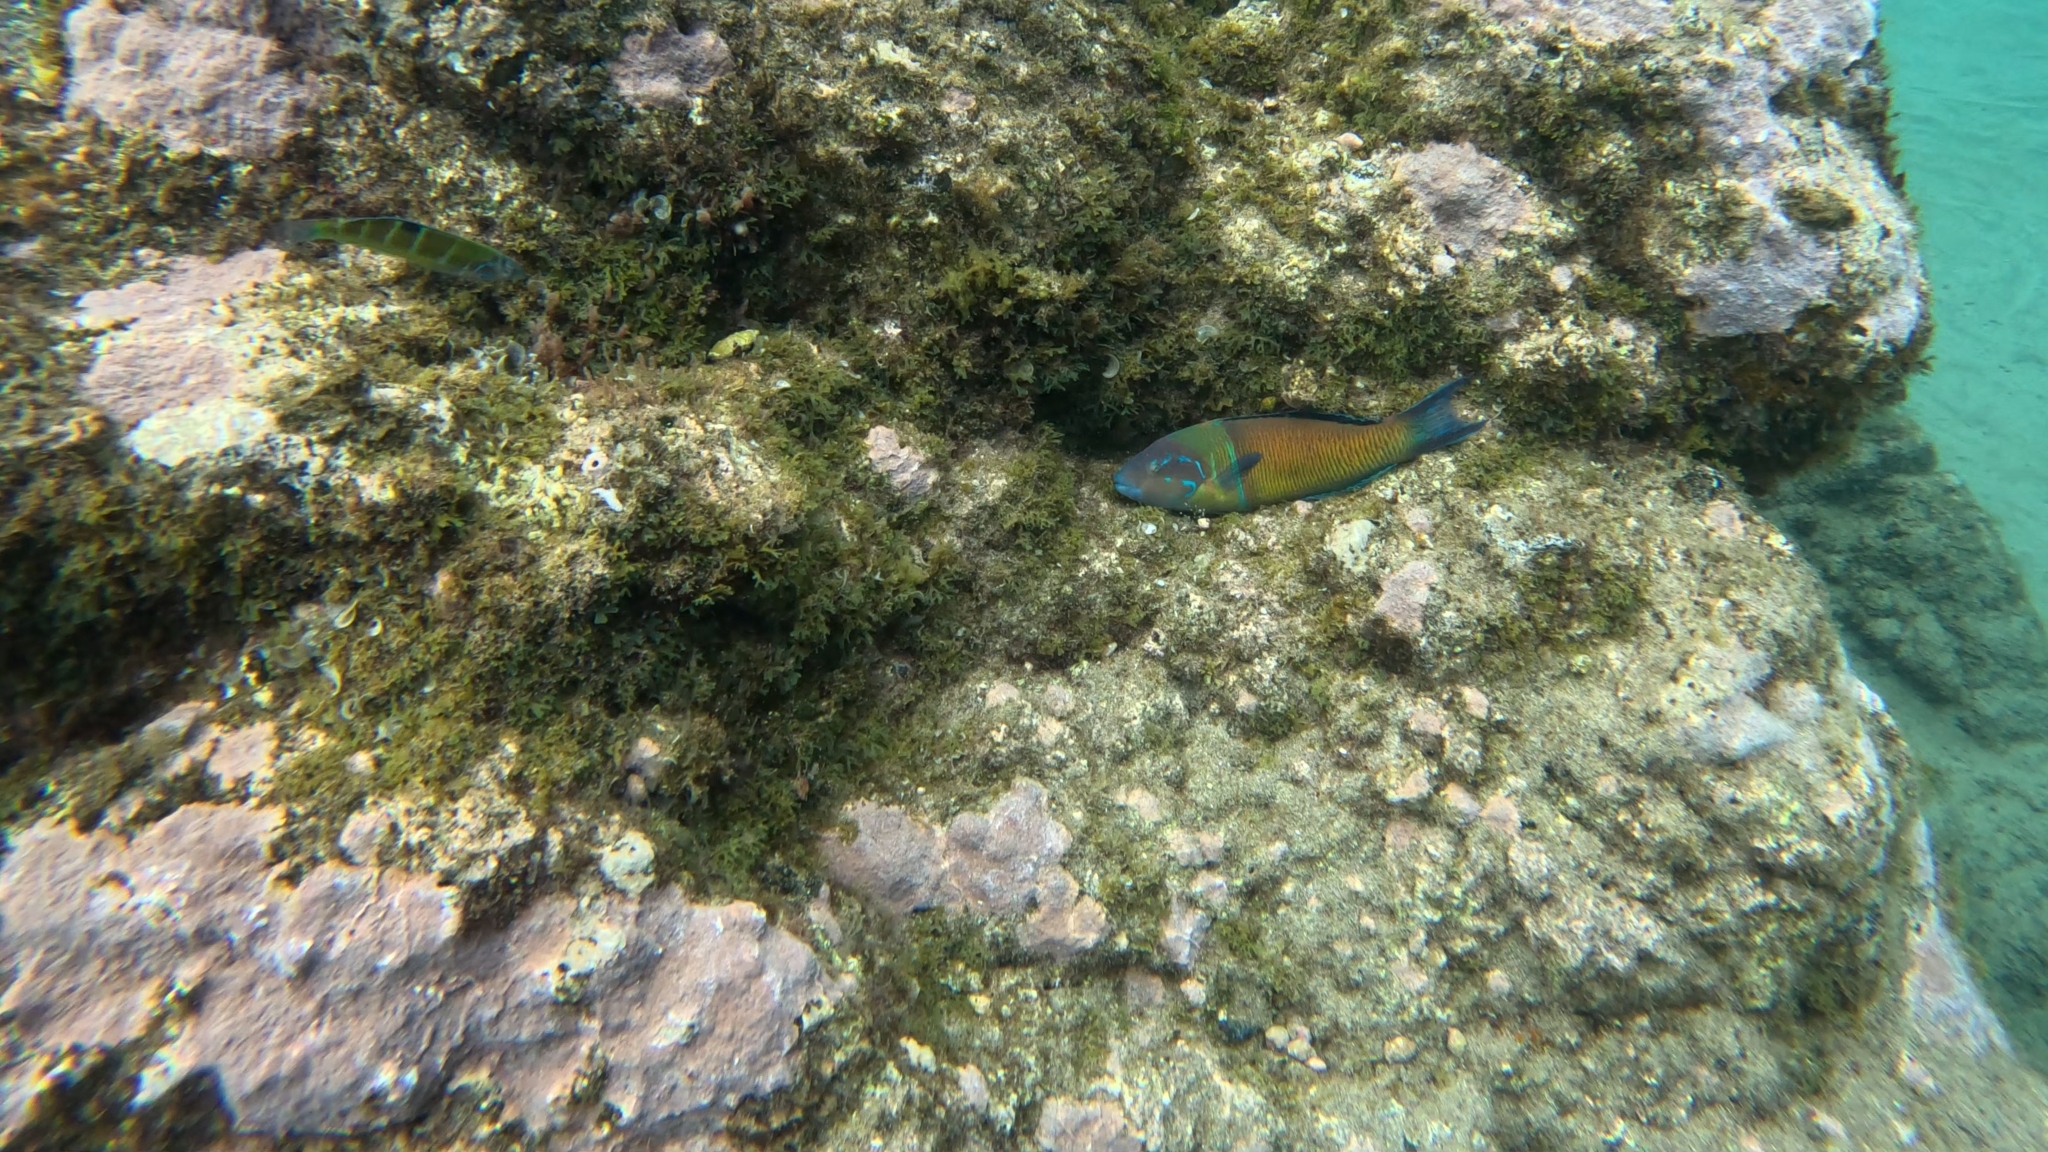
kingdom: Animalia
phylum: Chordata
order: Perciformes
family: Labridae
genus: Thalassoma
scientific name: Thalassoma pavo
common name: Ornate wrasse
